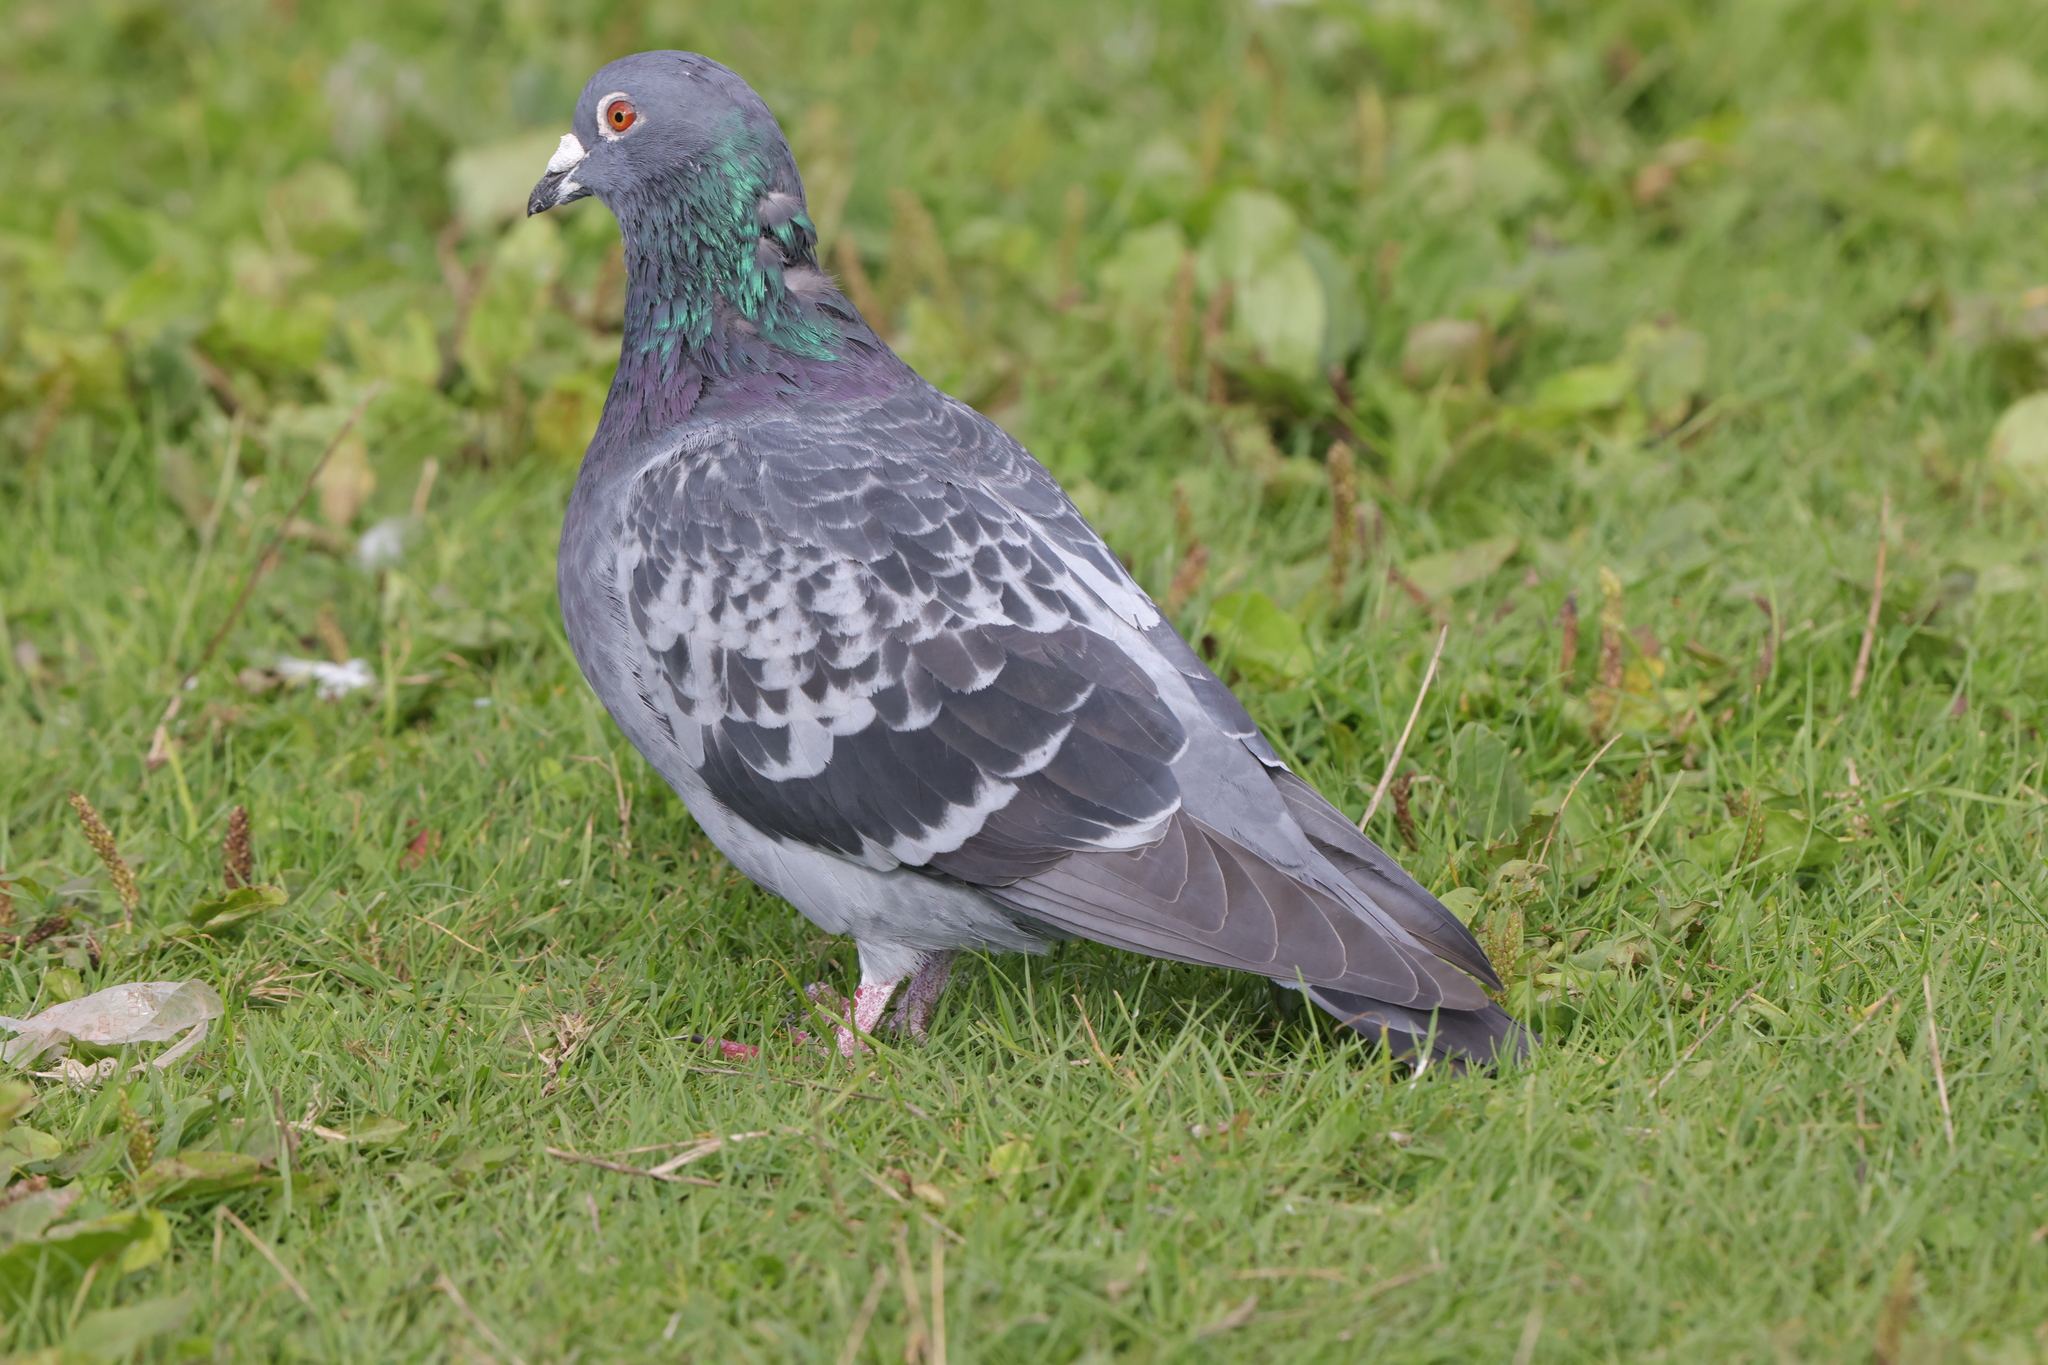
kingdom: Animalia
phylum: Chordata
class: Aves
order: Columbiformes
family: Columbidae
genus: Columba
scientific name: Columba livia
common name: Rock pigeon
